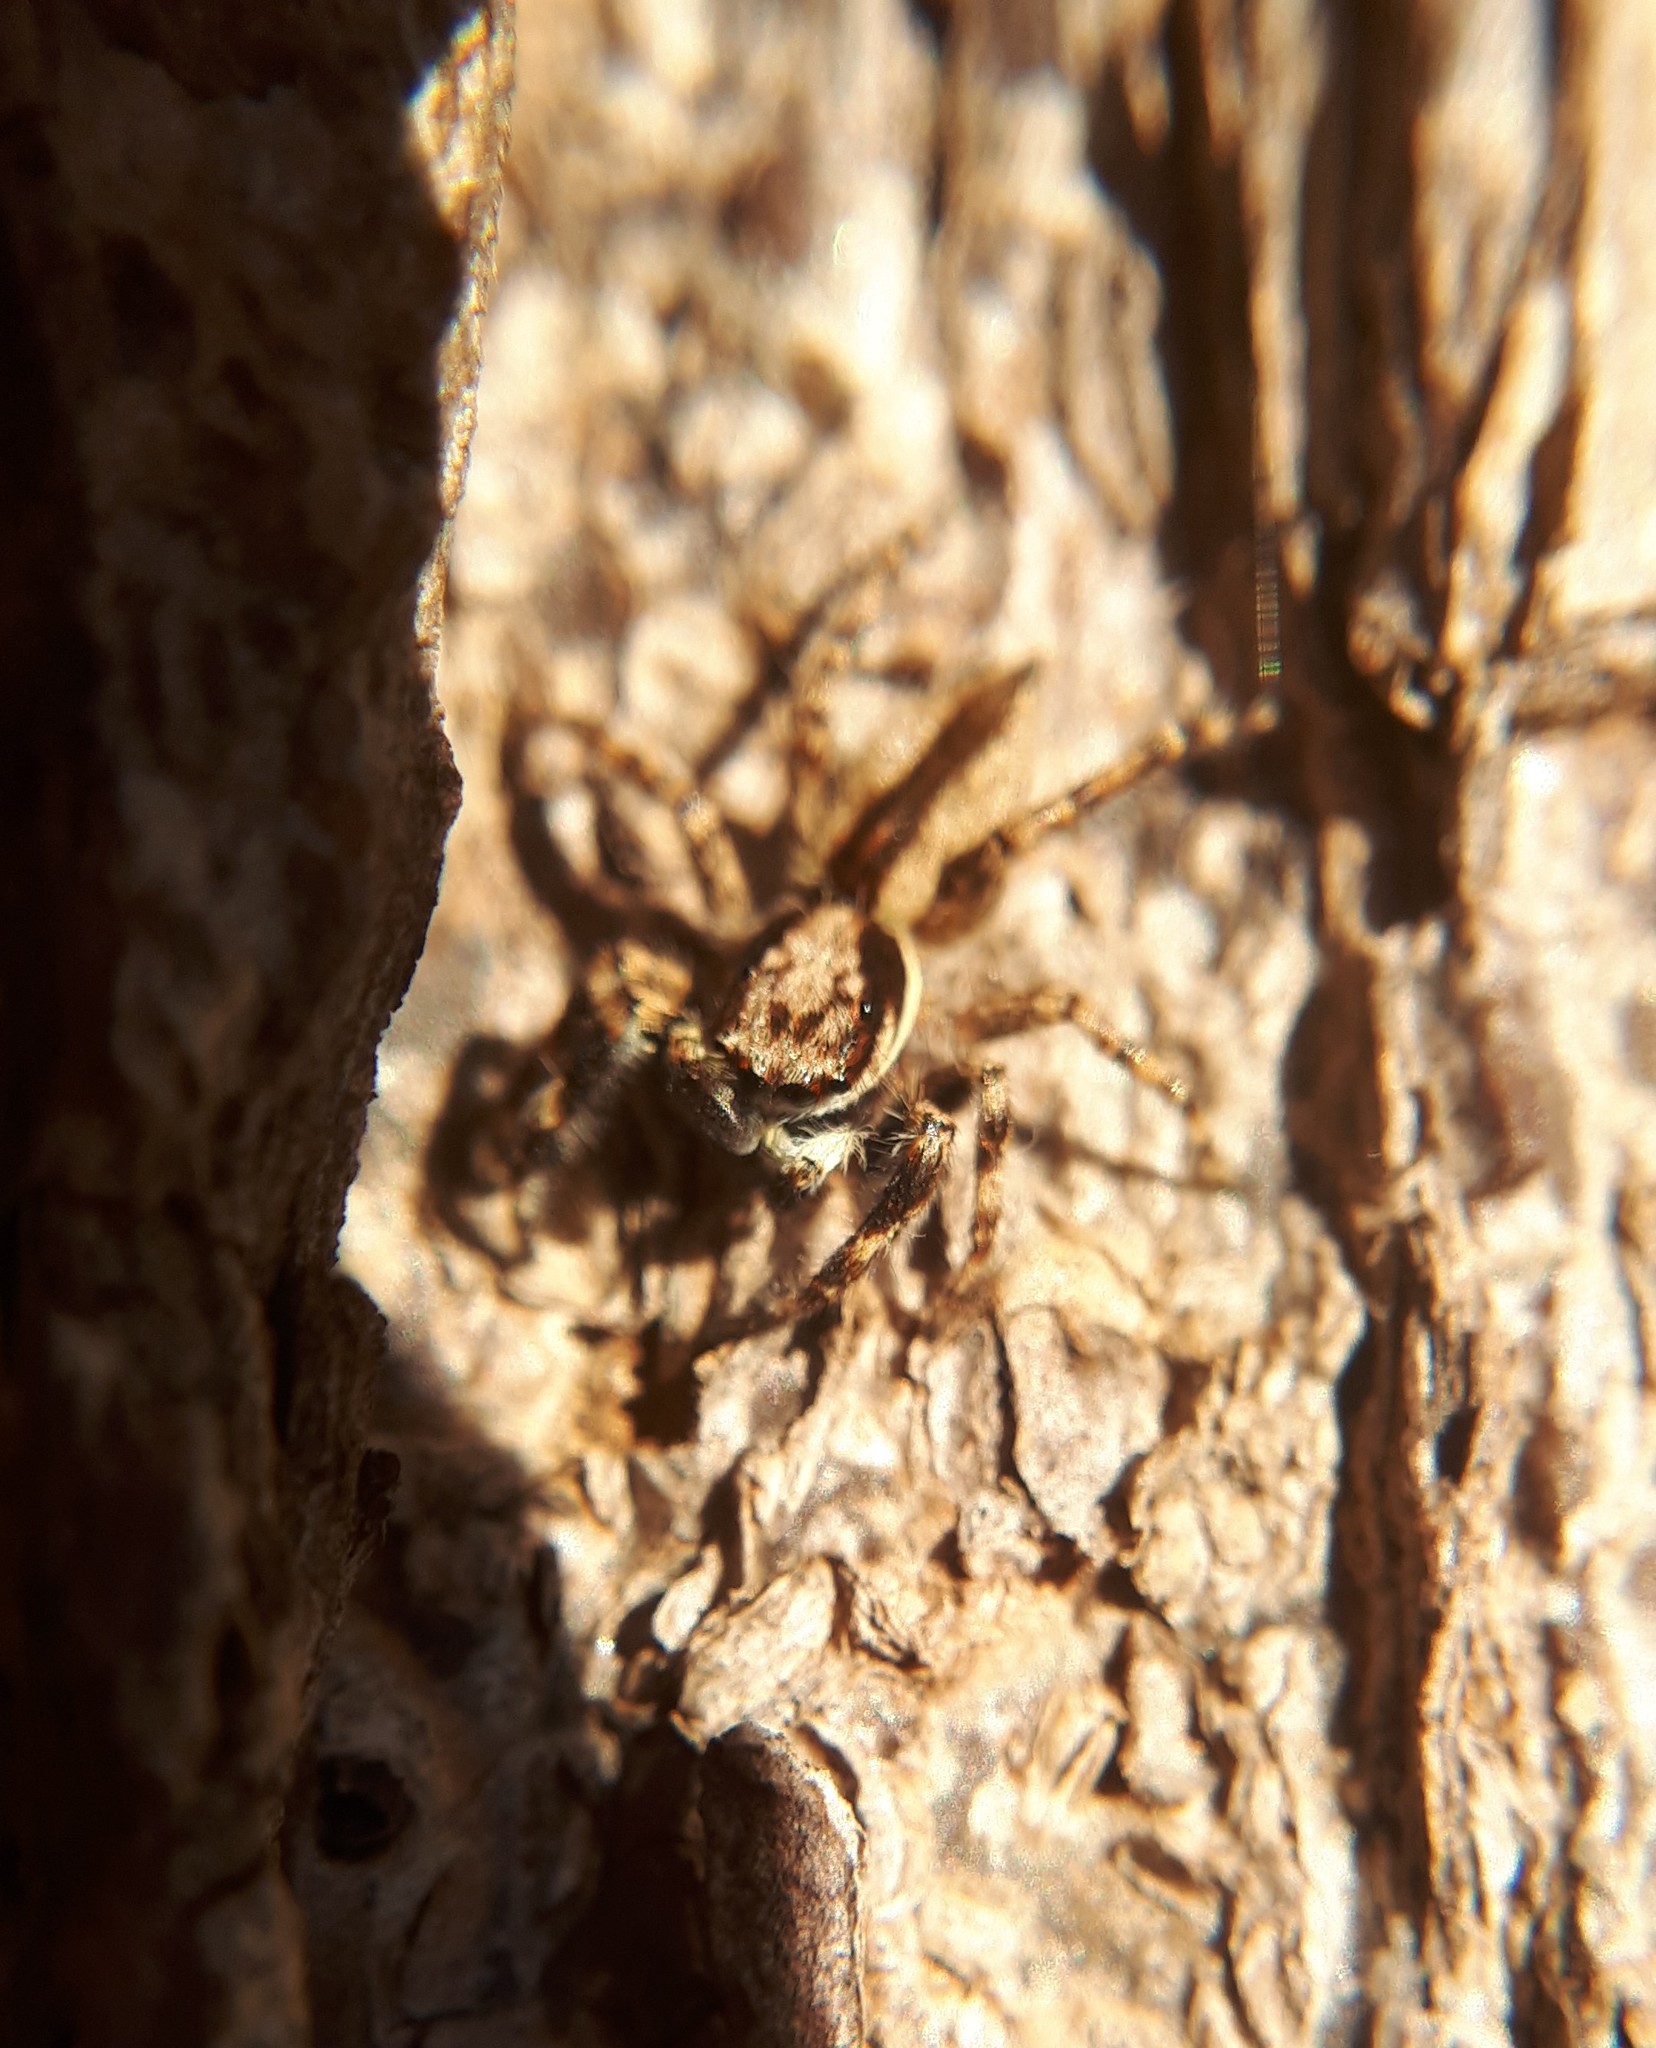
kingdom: Animalia
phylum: Arthropoda
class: Arachnida
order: Araneae
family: Salticidae
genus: Menemerus
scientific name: Menemerus bivittatus
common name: Gray wall jumper
